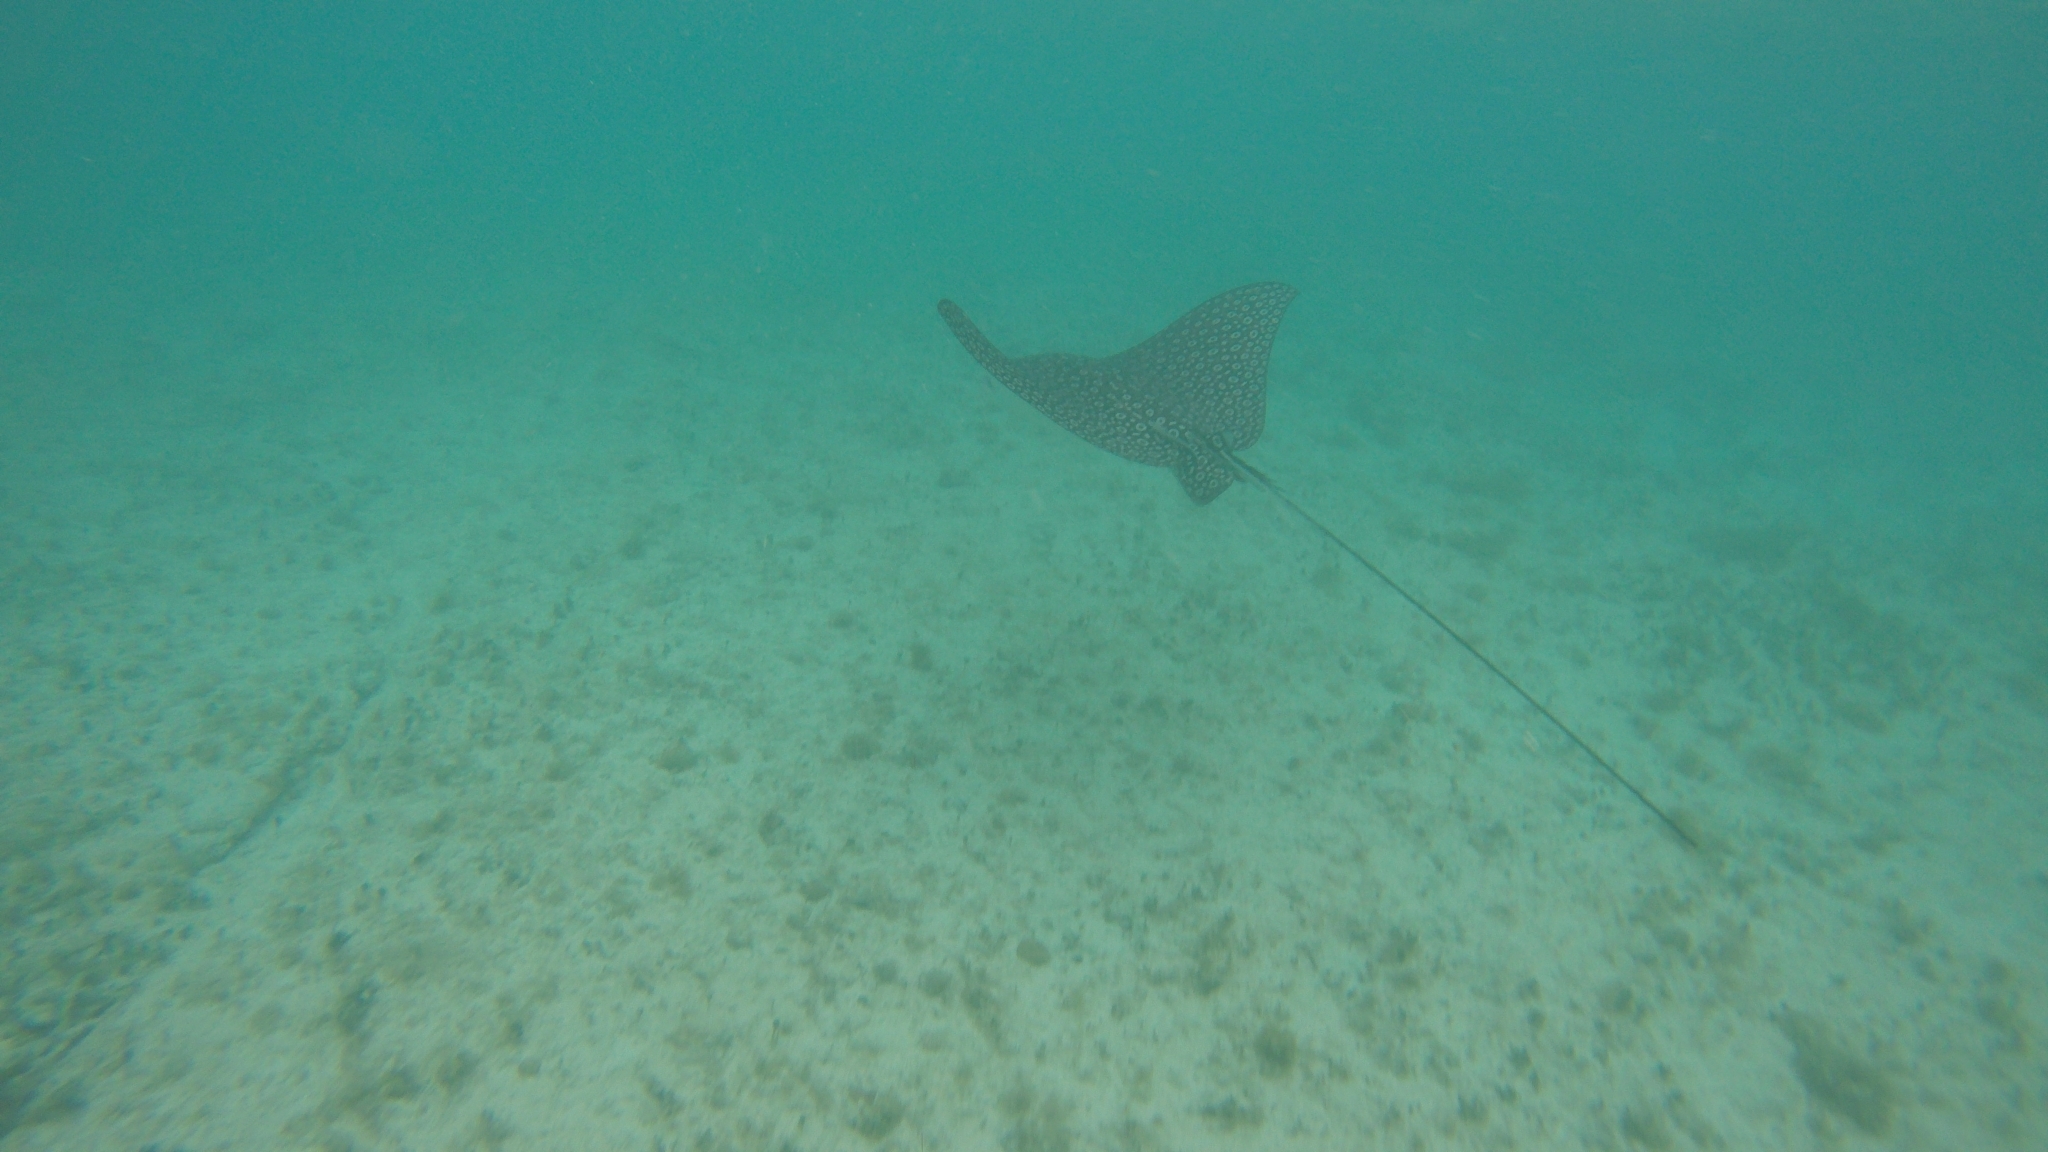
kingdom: Animalia
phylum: Chordata
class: Elasmobranchii
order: Myliobatiformes
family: Myliobatidae
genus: Aetobatus
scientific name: Aetobatus narinari
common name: Spotted eagle ray
